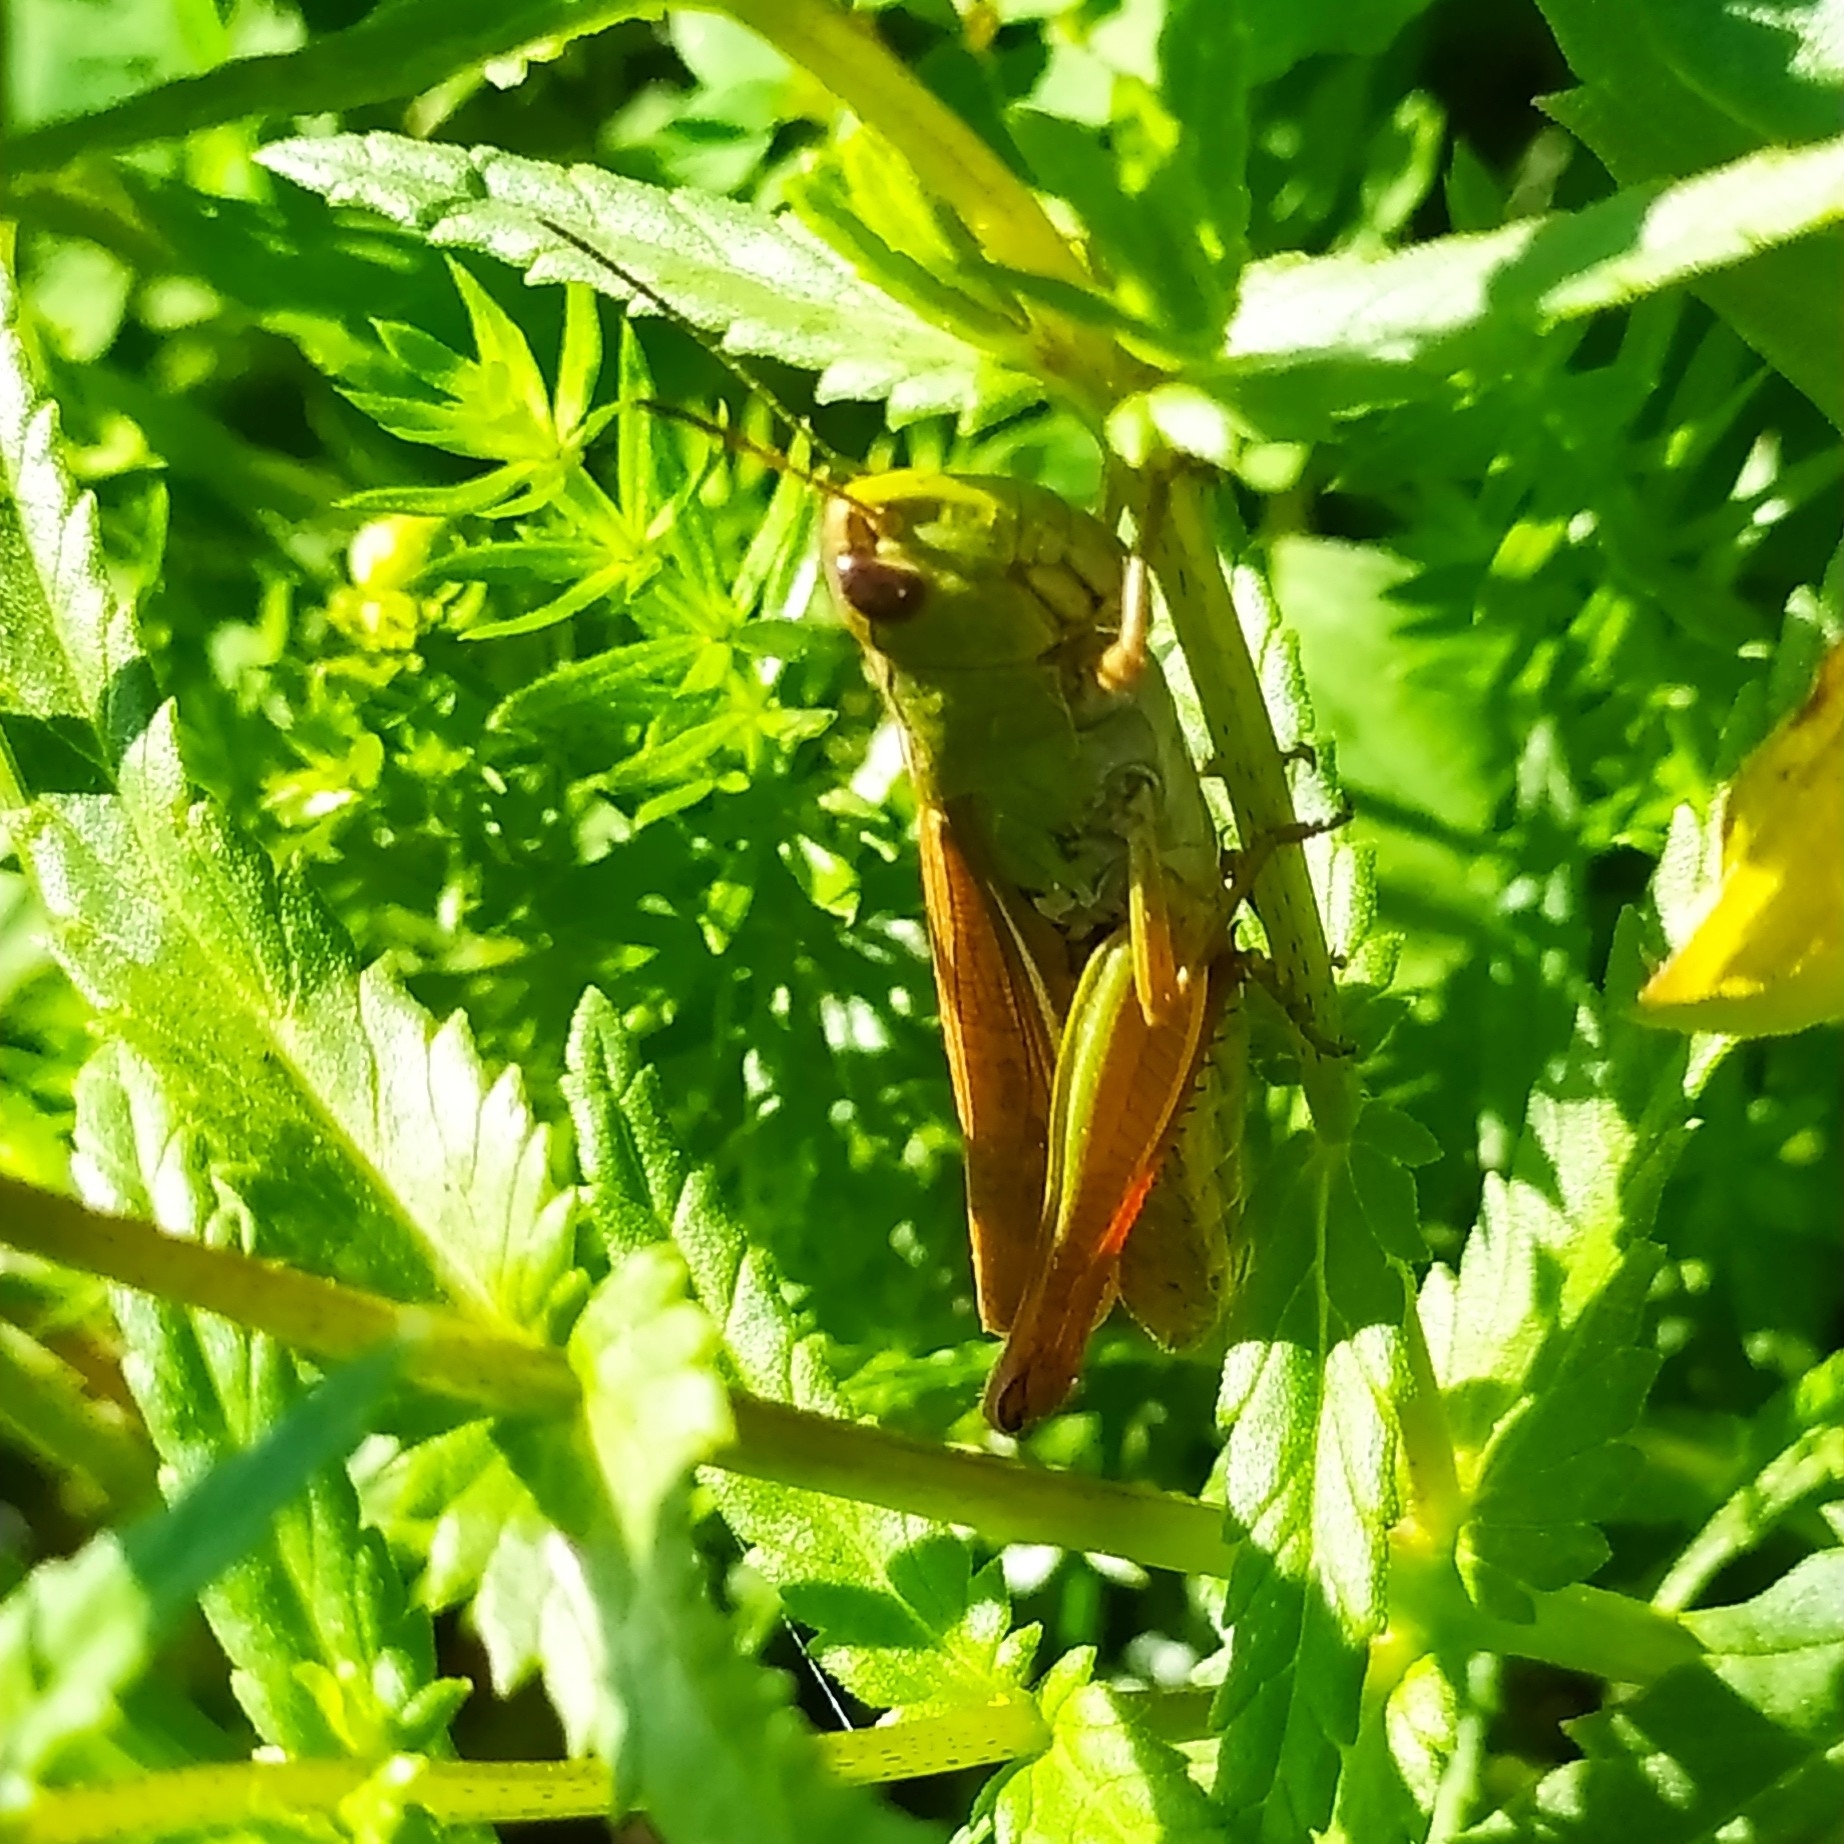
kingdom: Animalia
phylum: Arthropoda
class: Insecta
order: Orthoptera
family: Acrididae
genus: Pseudochorthippus
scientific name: Pseudochorthippus parallelus
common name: Meadow grasshopper
